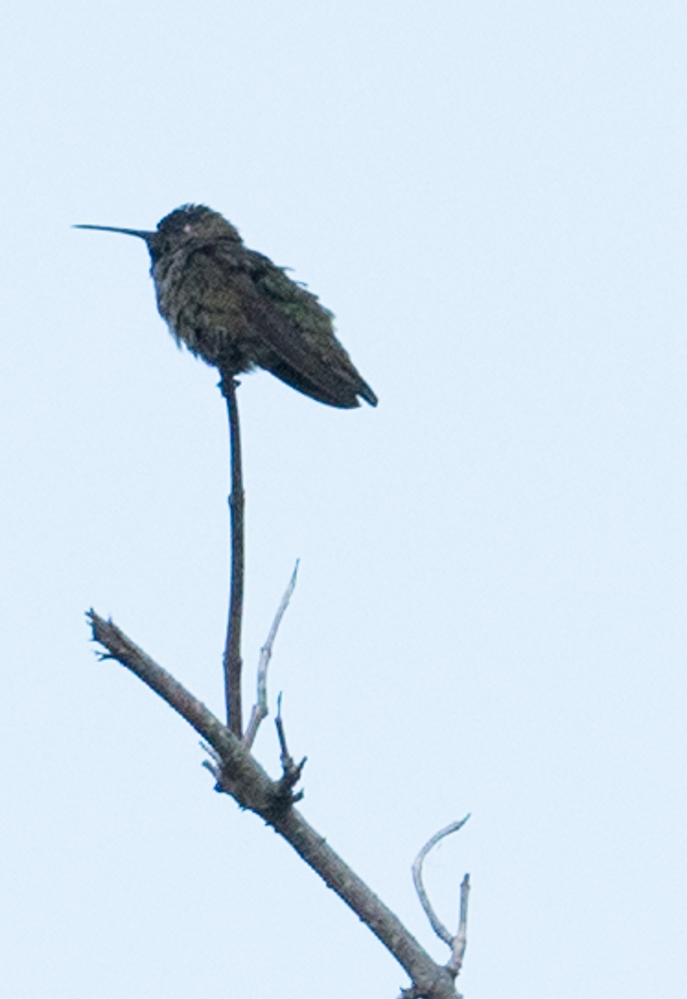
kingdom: Animalia
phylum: Chordata
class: Aves
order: Apodiformes
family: Trochilidae
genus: Calypte
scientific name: Calypte anna
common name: Anna's hummingbird
